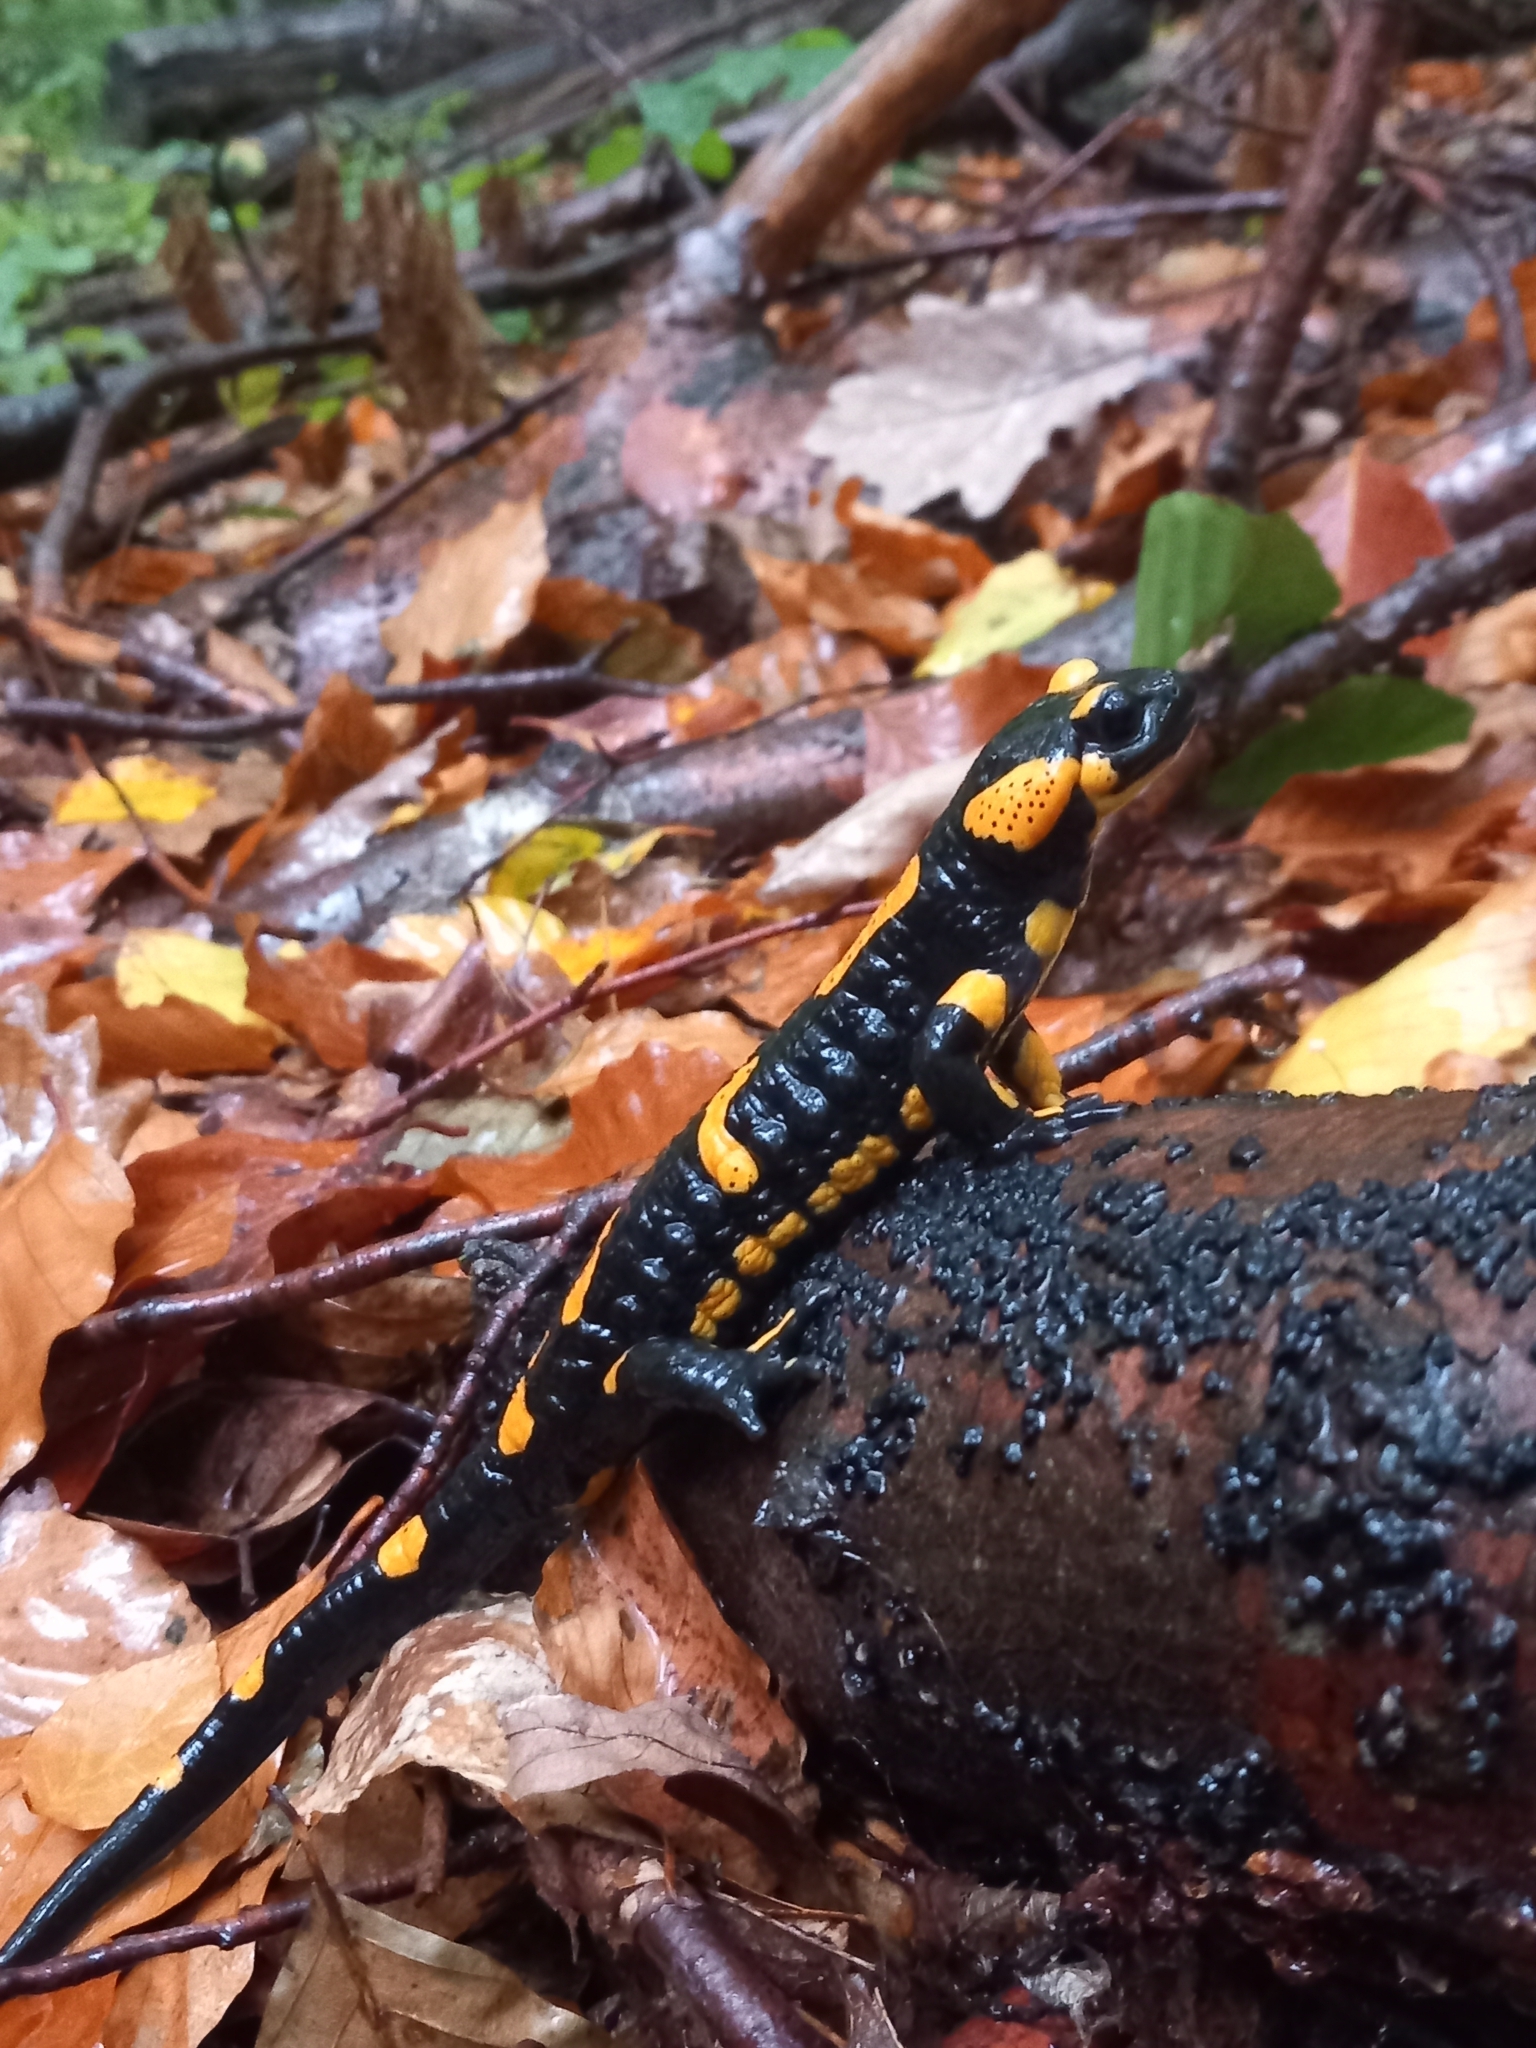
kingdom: Animalia
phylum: Chordata
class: Amphibia
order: Caudata
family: Salamandridae
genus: Salamandra
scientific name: Salamandra salamandra
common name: Fire salamander
